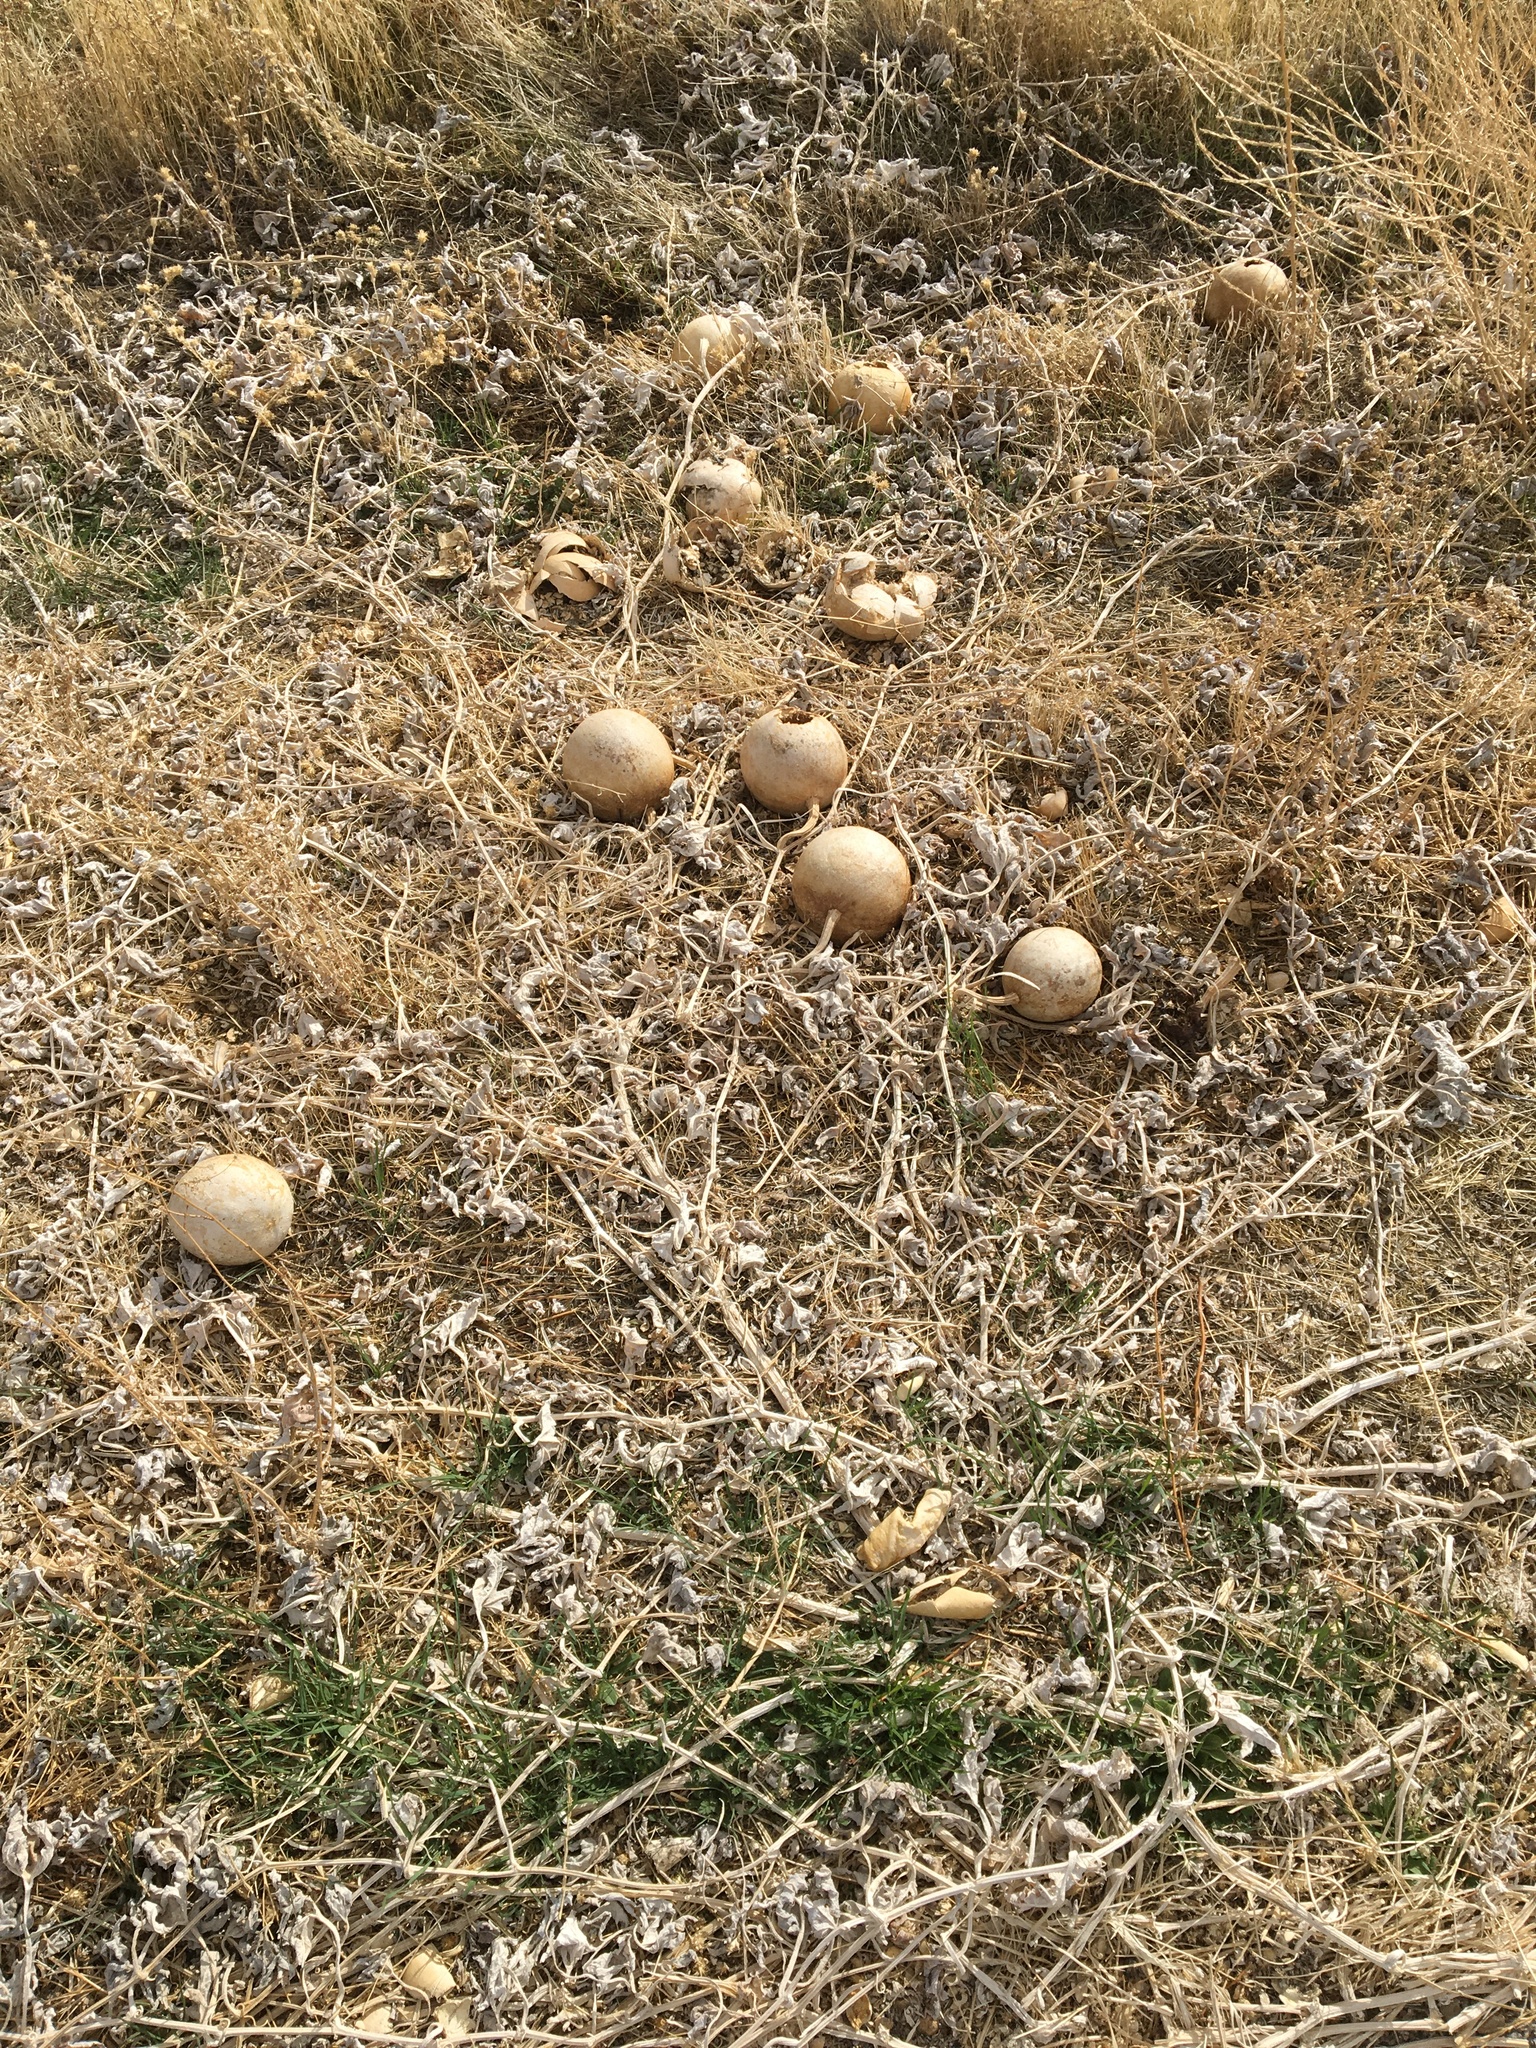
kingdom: Plantae
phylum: Tracheophyta
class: Magnoliopsida
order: Cucurbitales
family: Cucurbitaceae
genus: Cucurbita
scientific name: Cucurbita palmata
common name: Coyote-melon
